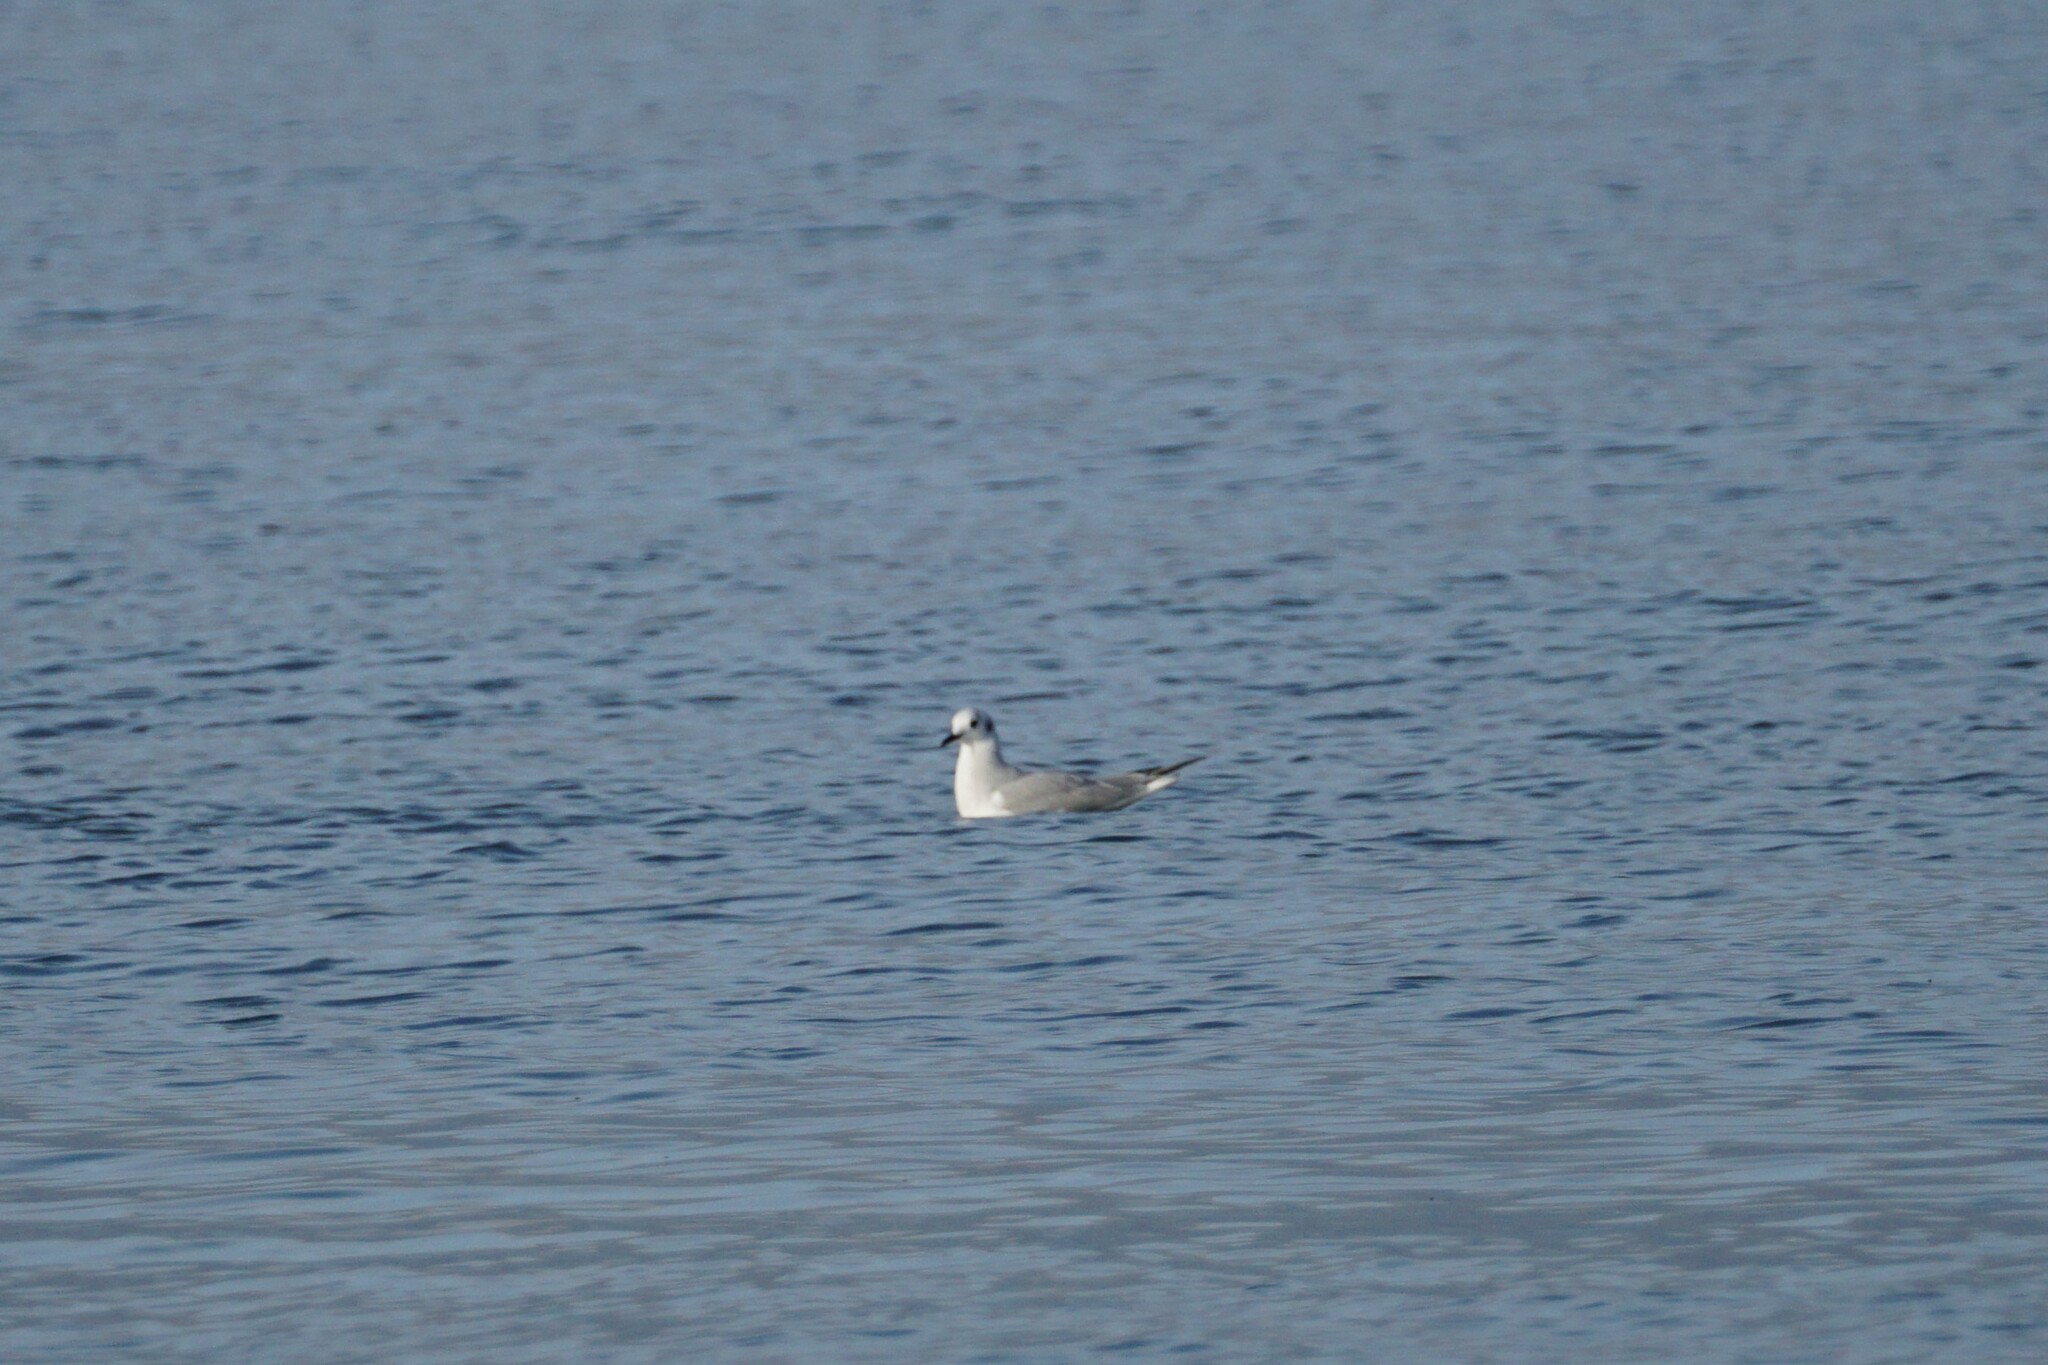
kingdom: Animalia
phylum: Chordata
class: Aves
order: Charadriiformes
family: Laridae
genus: Chroicocephalus
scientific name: Chroicocephalus philadelphia
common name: Bonaparte's gull
